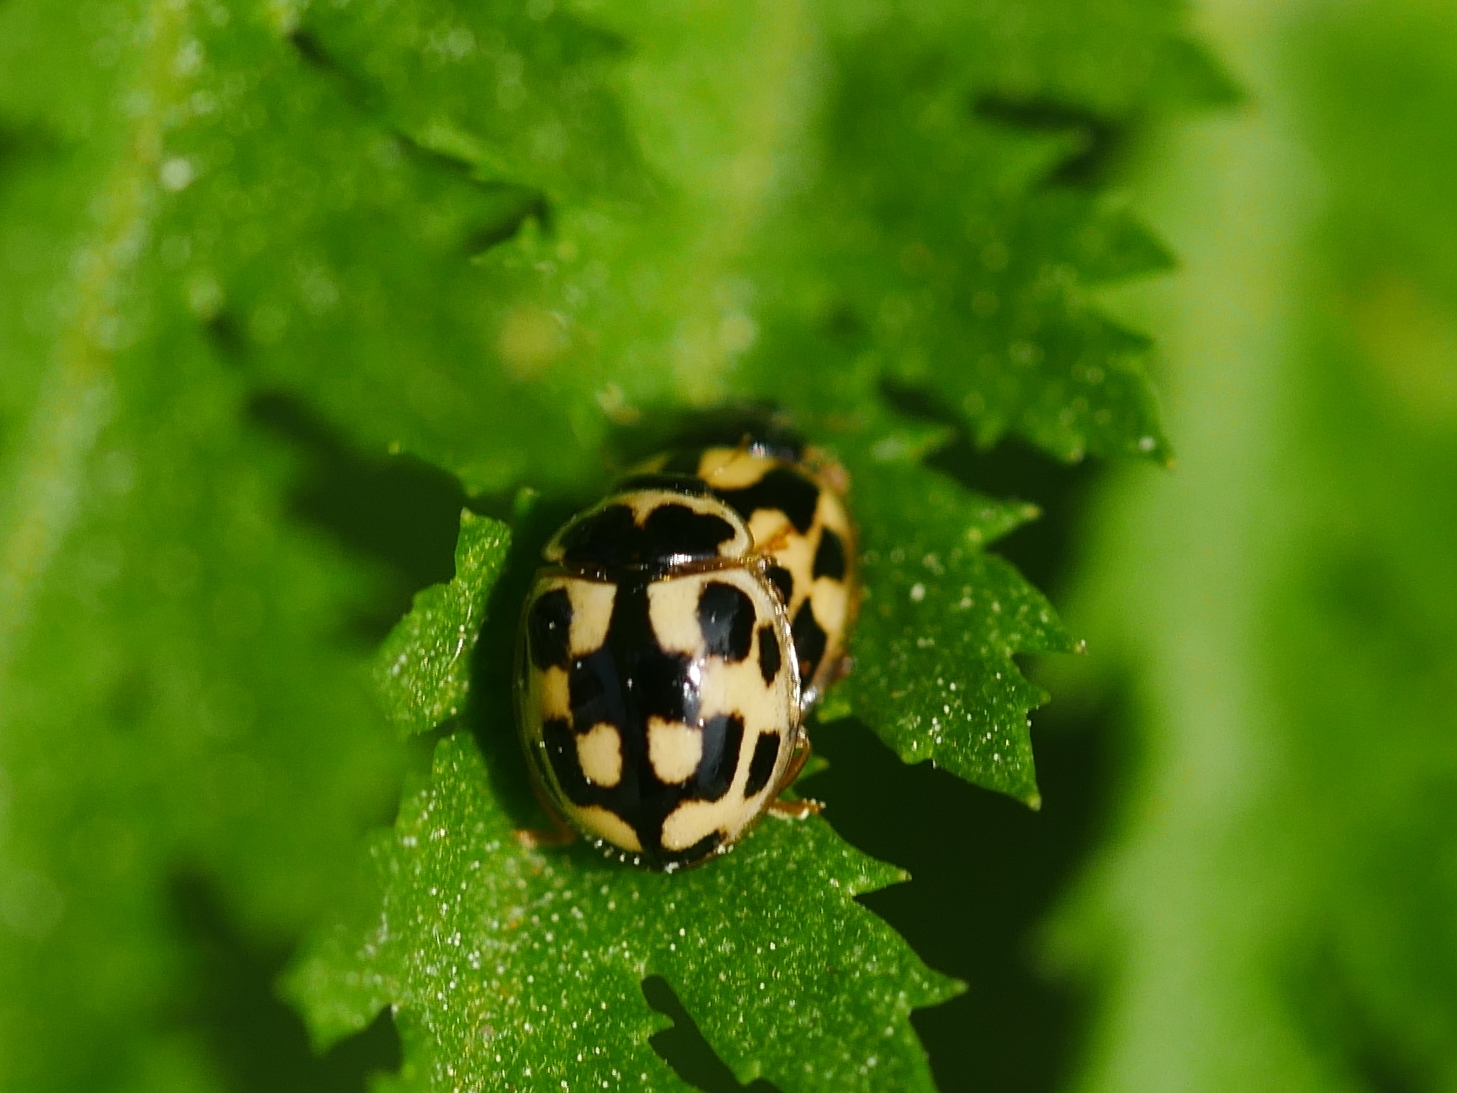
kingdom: Animalia
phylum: Arthropoda
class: Insecta
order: Coleoptera
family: Coccinellidae
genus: Propylaea
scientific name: Propylaea quatuordecimpunctata
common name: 14-spotted ladybird beetle
